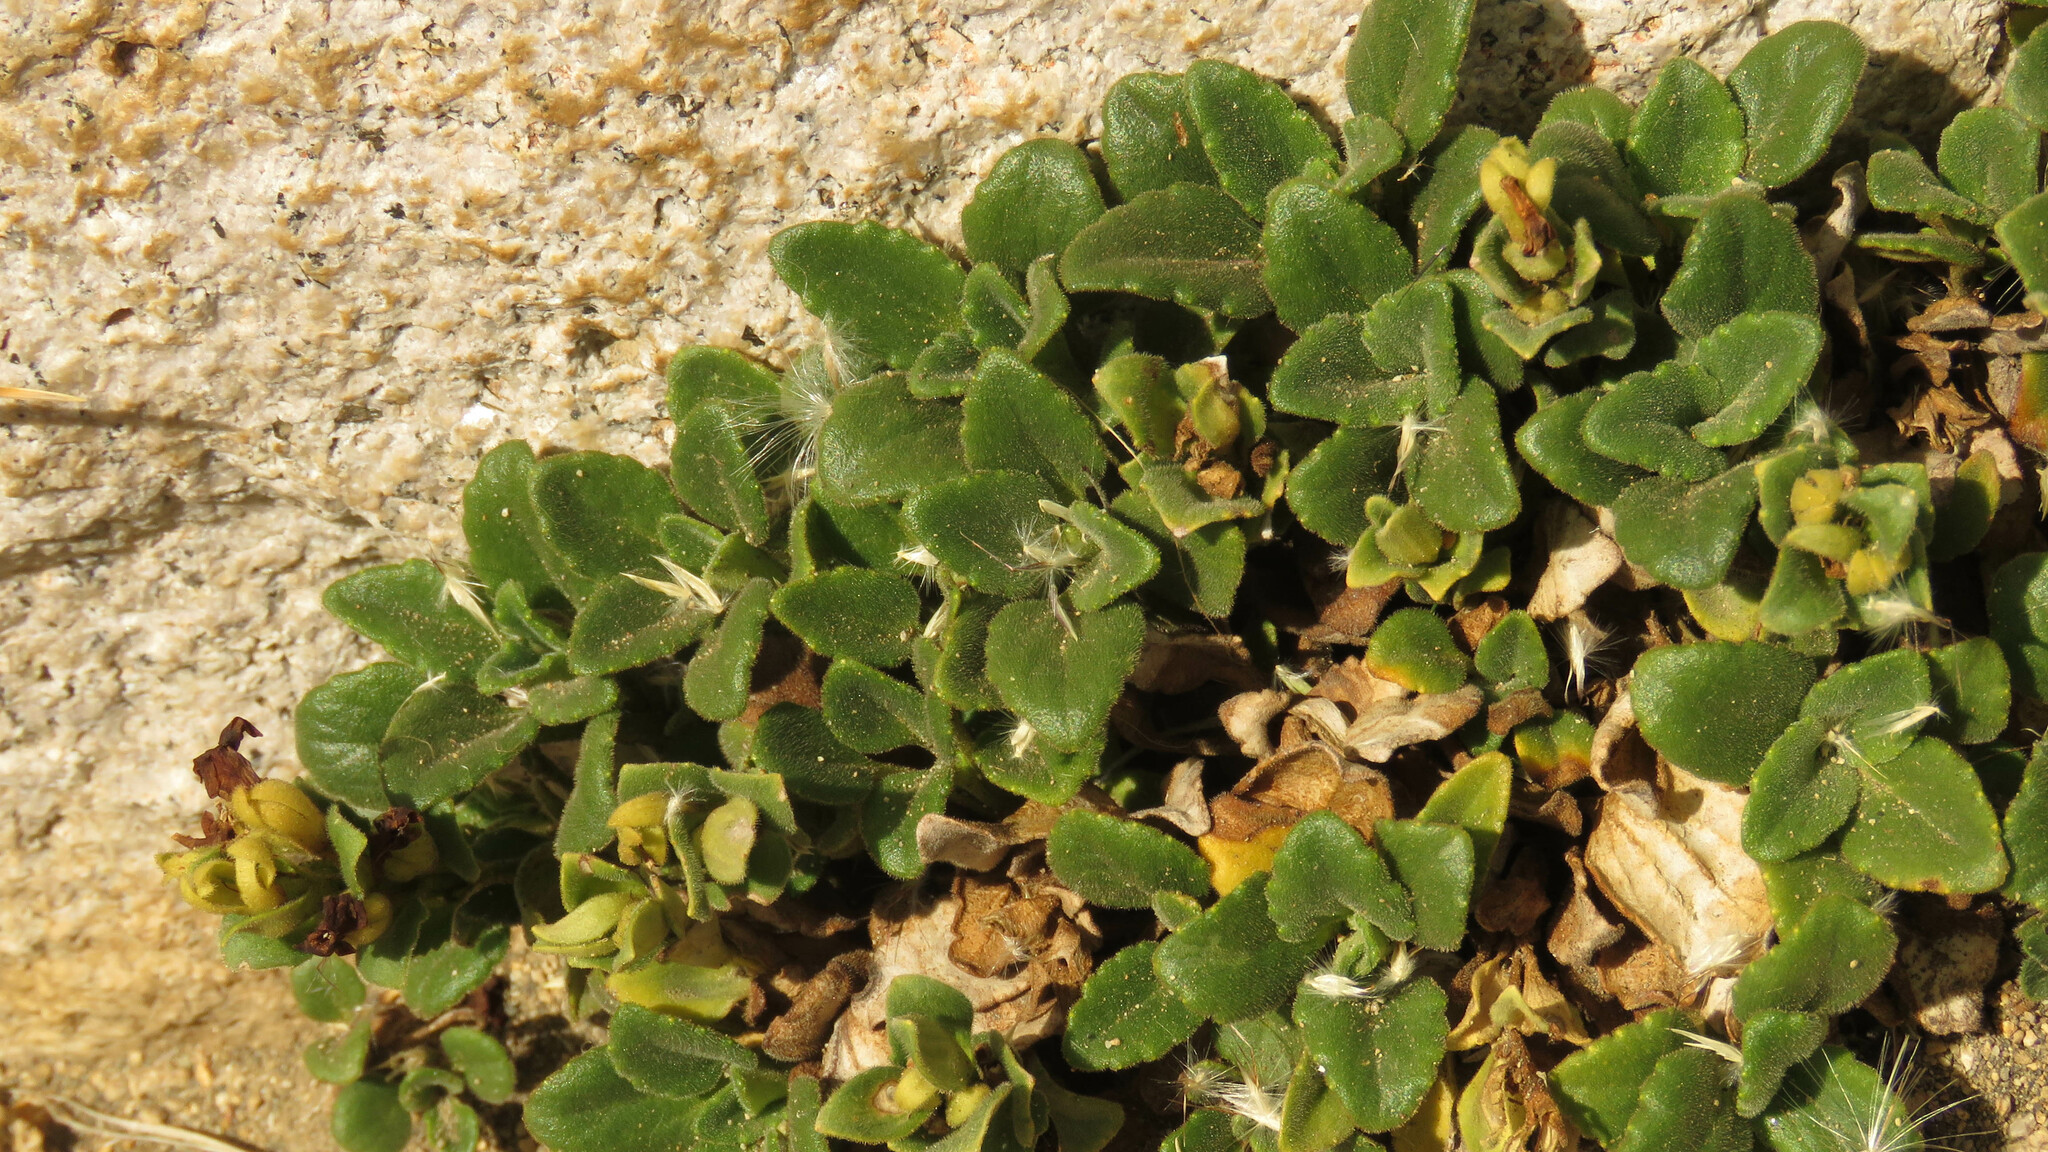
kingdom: Plantae
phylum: Tracheophyta
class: Magnoliopsida
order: Lamiales
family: Plantaginaceae
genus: Ourisia
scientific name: Ourisia fragrans
